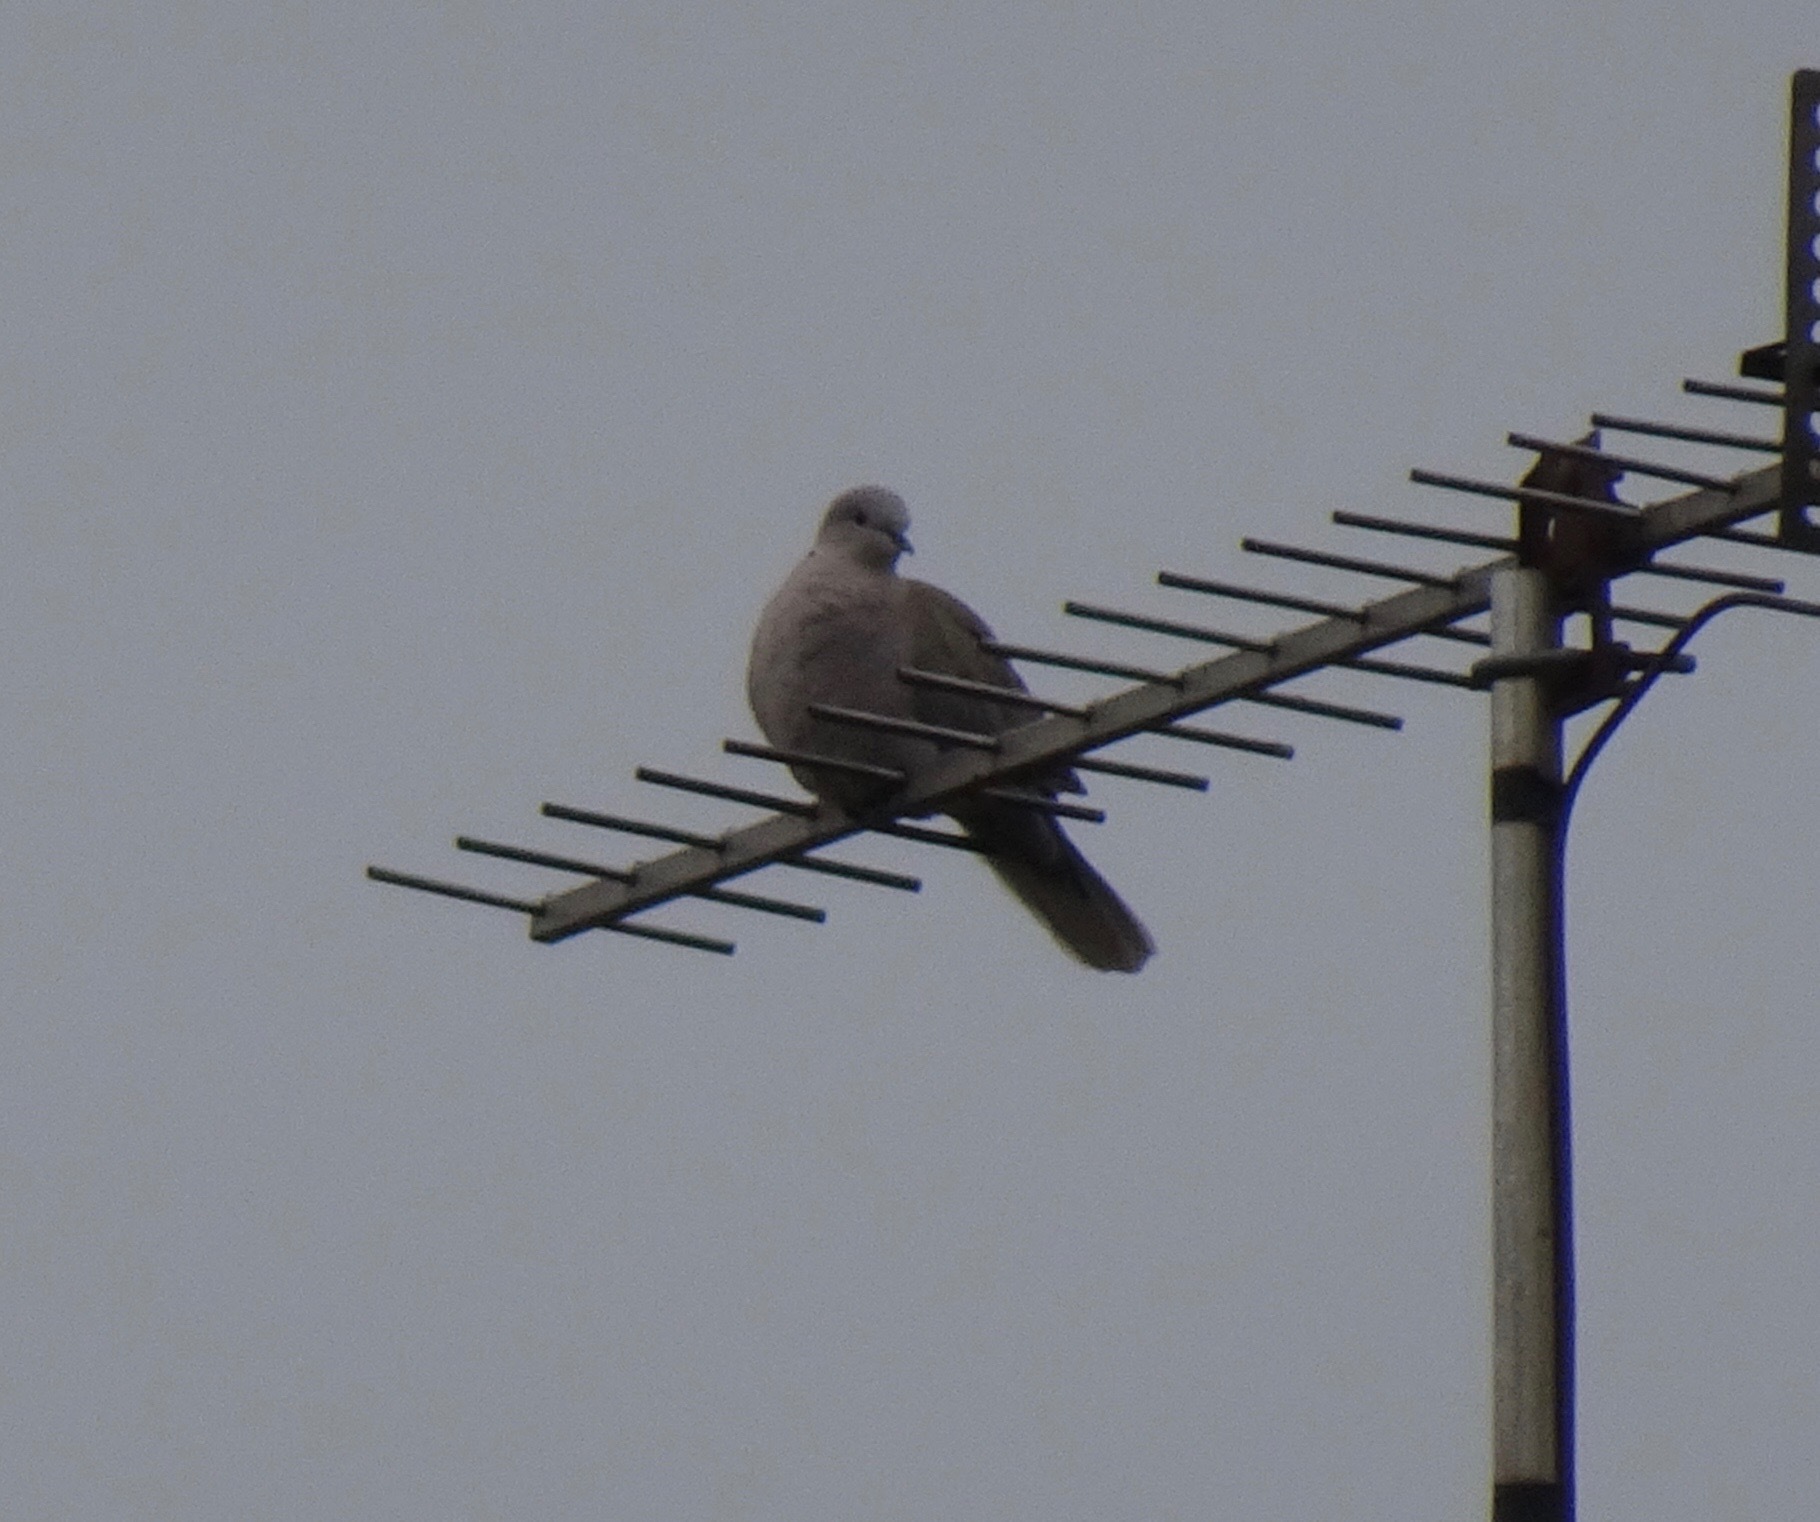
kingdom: Animalia
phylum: Chordata
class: Aves
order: Columbiformes
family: Columbidae
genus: Streptopelia
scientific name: Streptopelia decaocto
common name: Eurasian collared dove
